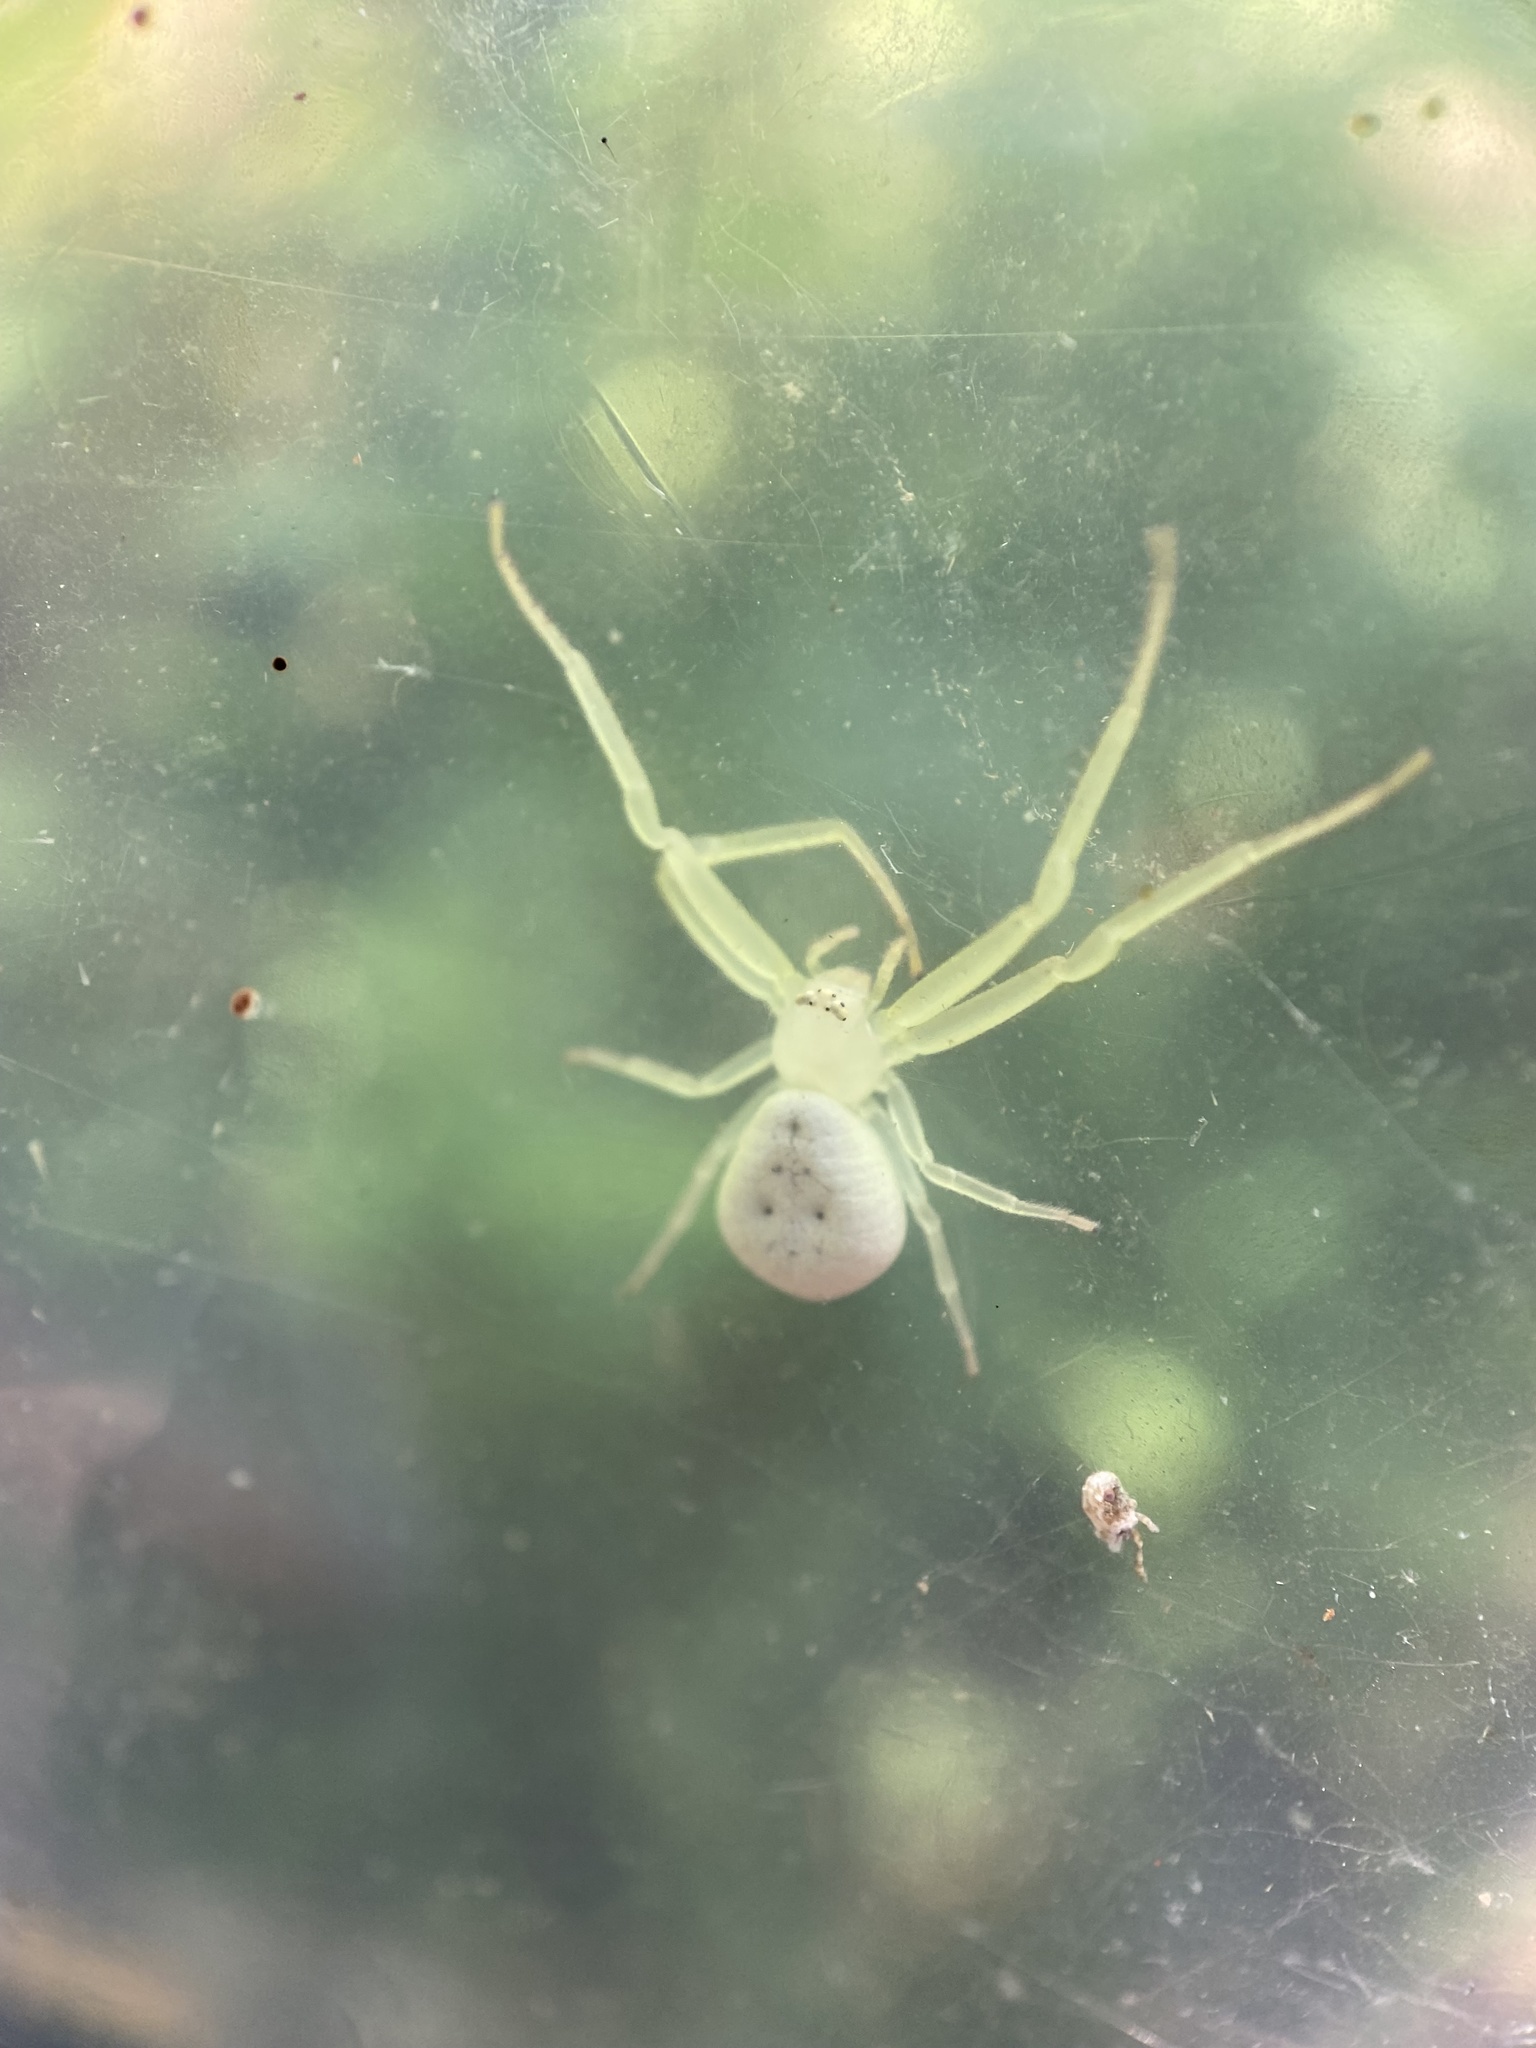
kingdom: Animalia
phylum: Arthropoda
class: Arachnida
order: Araneae
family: Thomisidae
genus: Misumessus
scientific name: Misumessus oblongus
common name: American green crab spider
